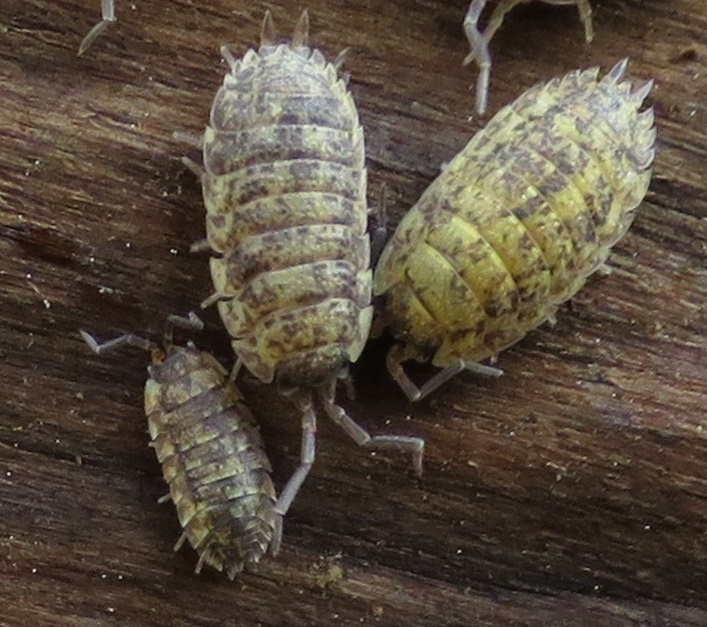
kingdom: Animalia
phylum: Arthropoda
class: Malacostraca
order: Isopoda
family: Porcellionidae
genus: Porcellio
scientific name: Porcellio scaber
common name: Common rough woodlouse
